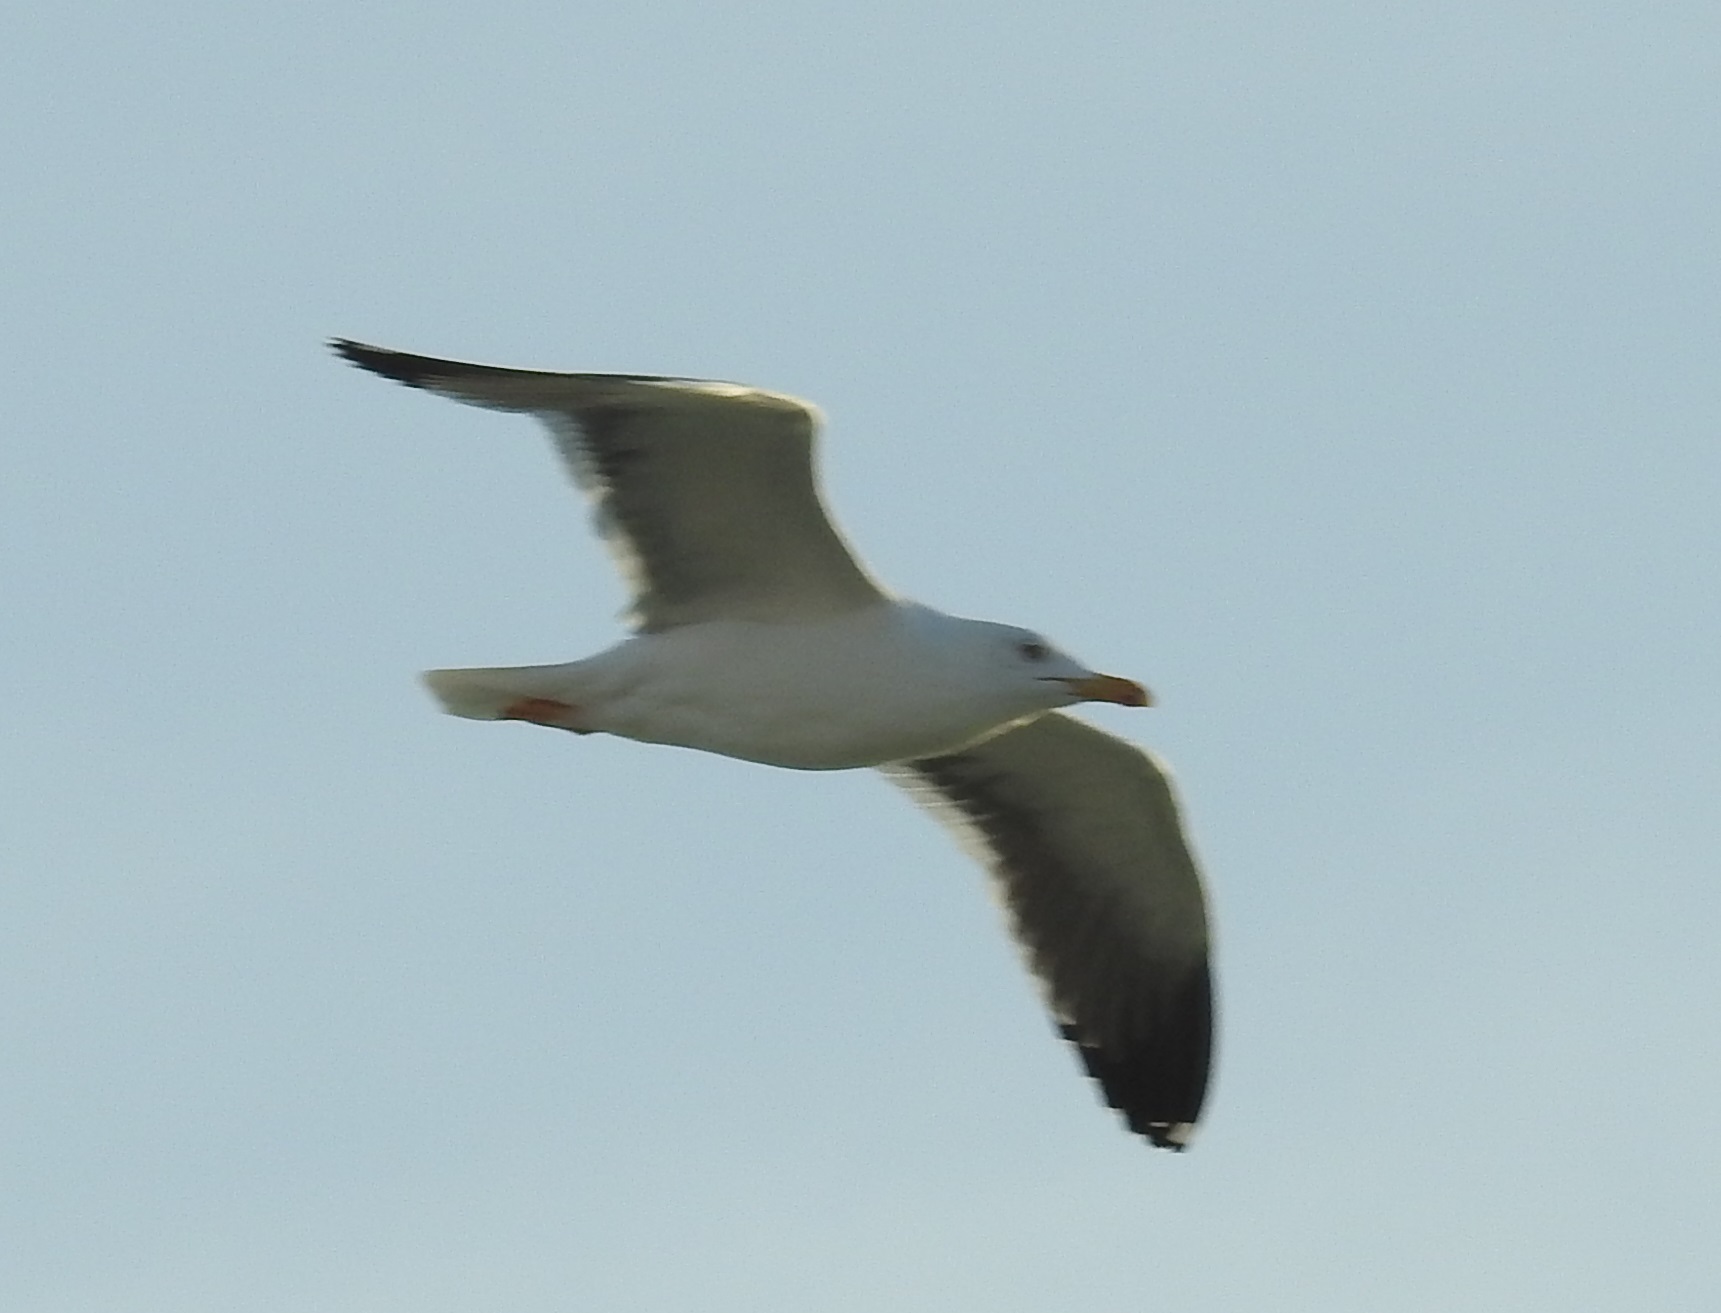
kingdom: Animalia
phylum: Chordata
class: Aves
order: Charadriiformes
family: Laridae
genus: Larus
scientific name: Larus fuscus
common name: Lesser black-backed gull
